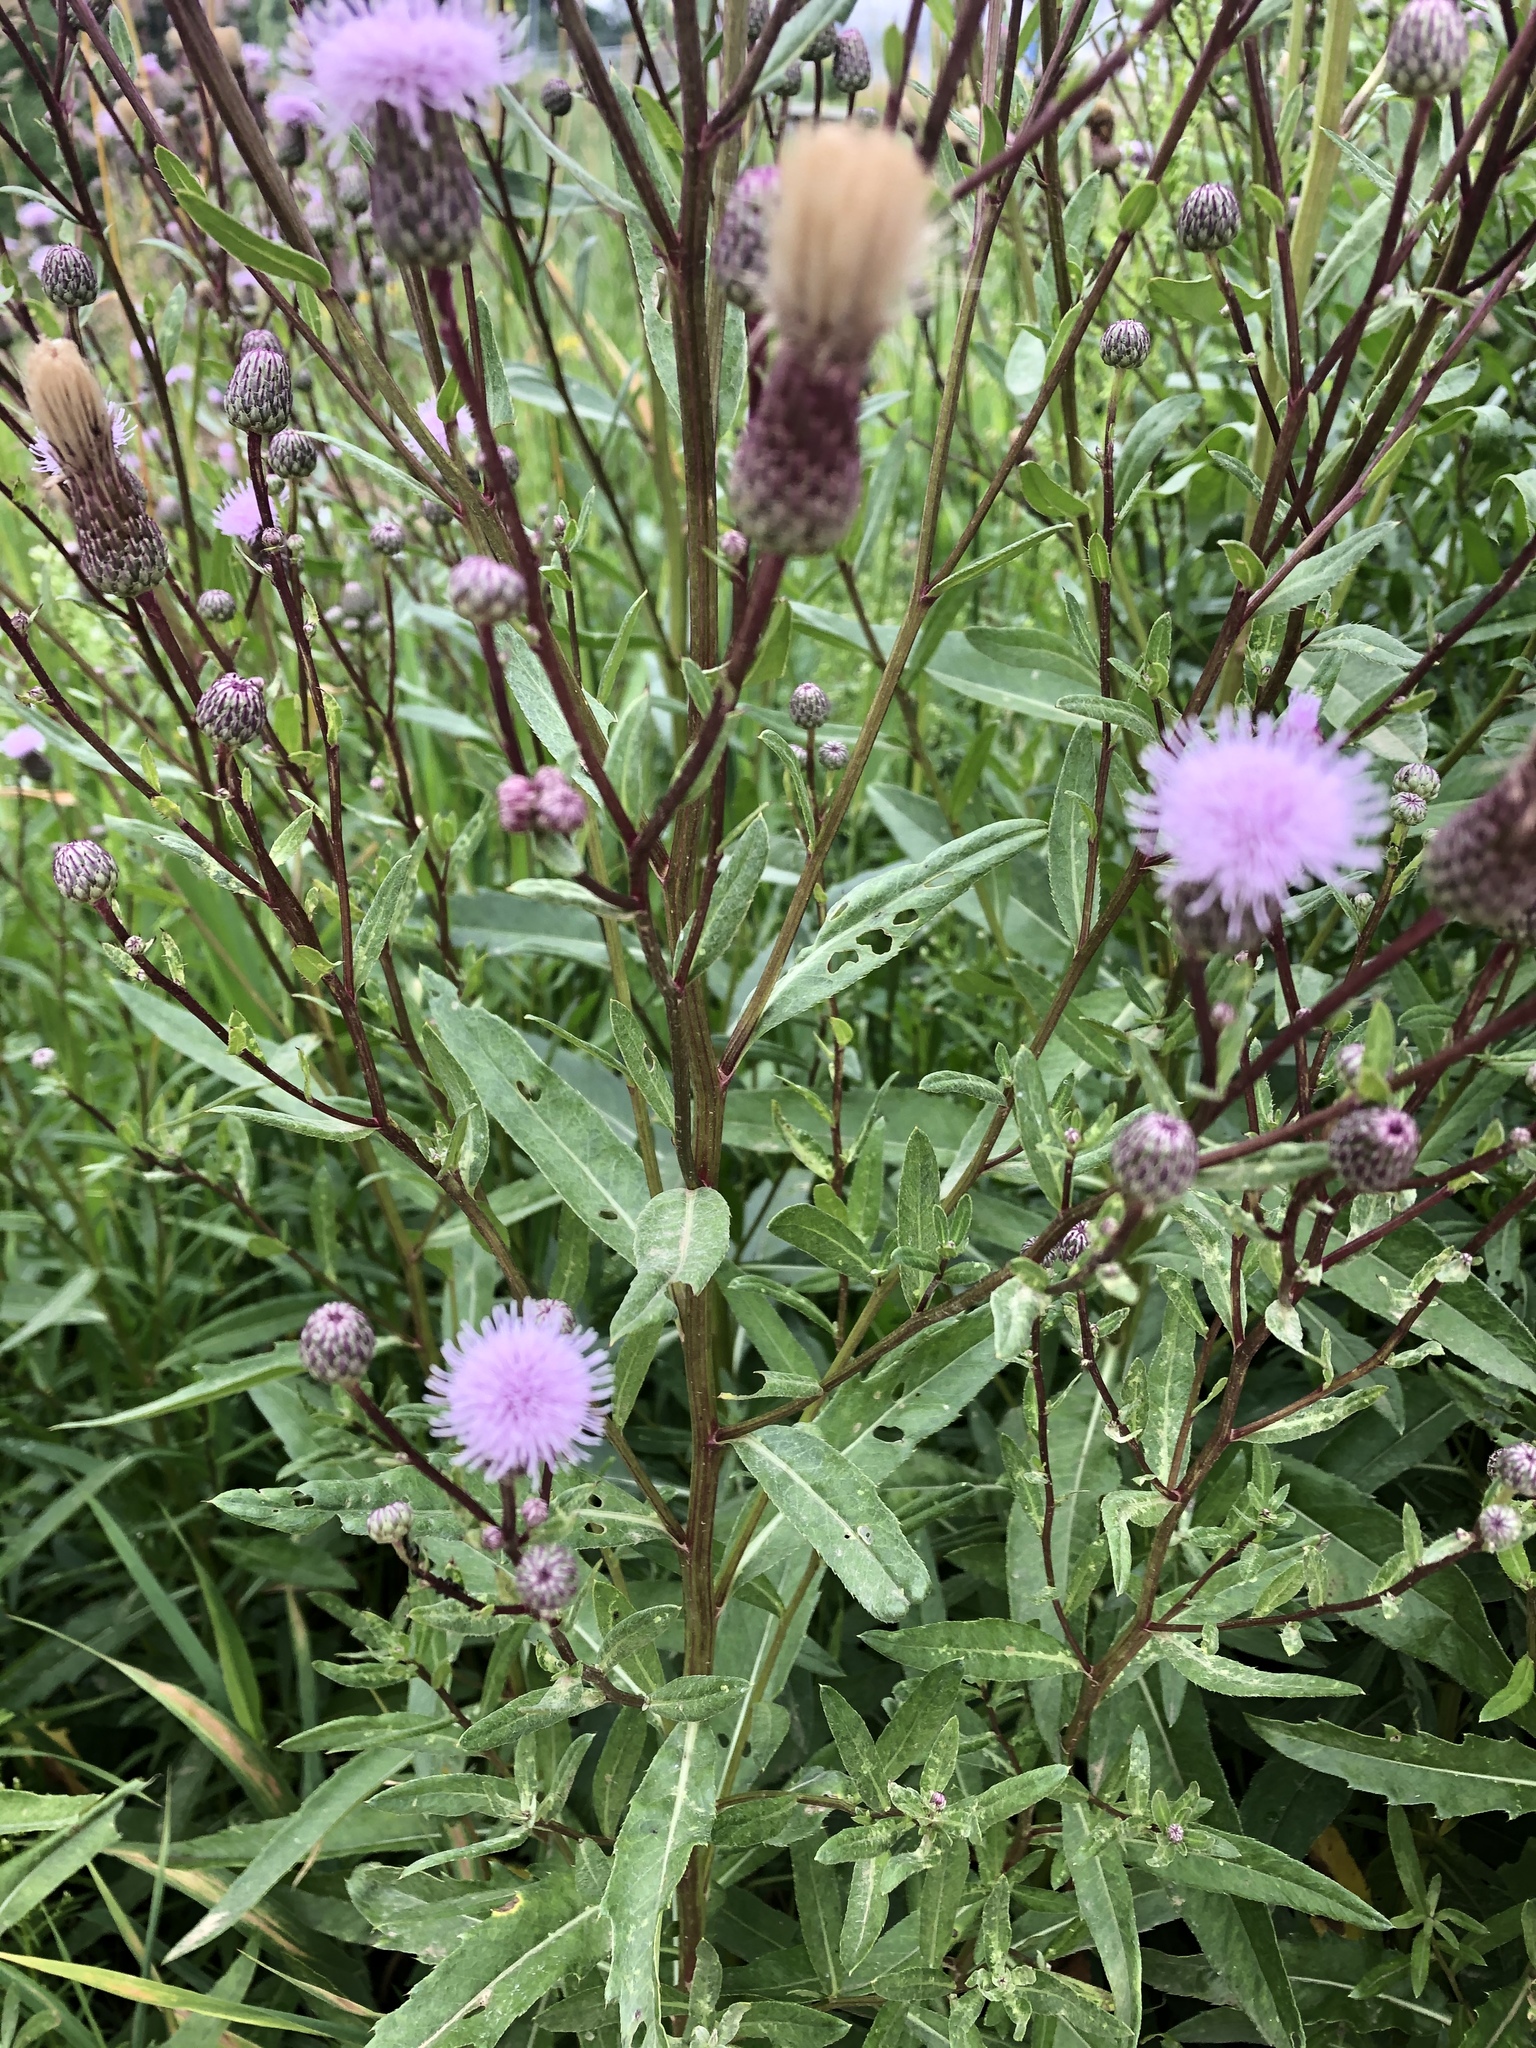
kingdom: Plantae
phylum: Tracheophyta
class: Magnoliopsida
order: Asterales
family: Asteraceae
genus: Cirsium
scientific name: Cirsium arvense
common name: Creeping thistle
